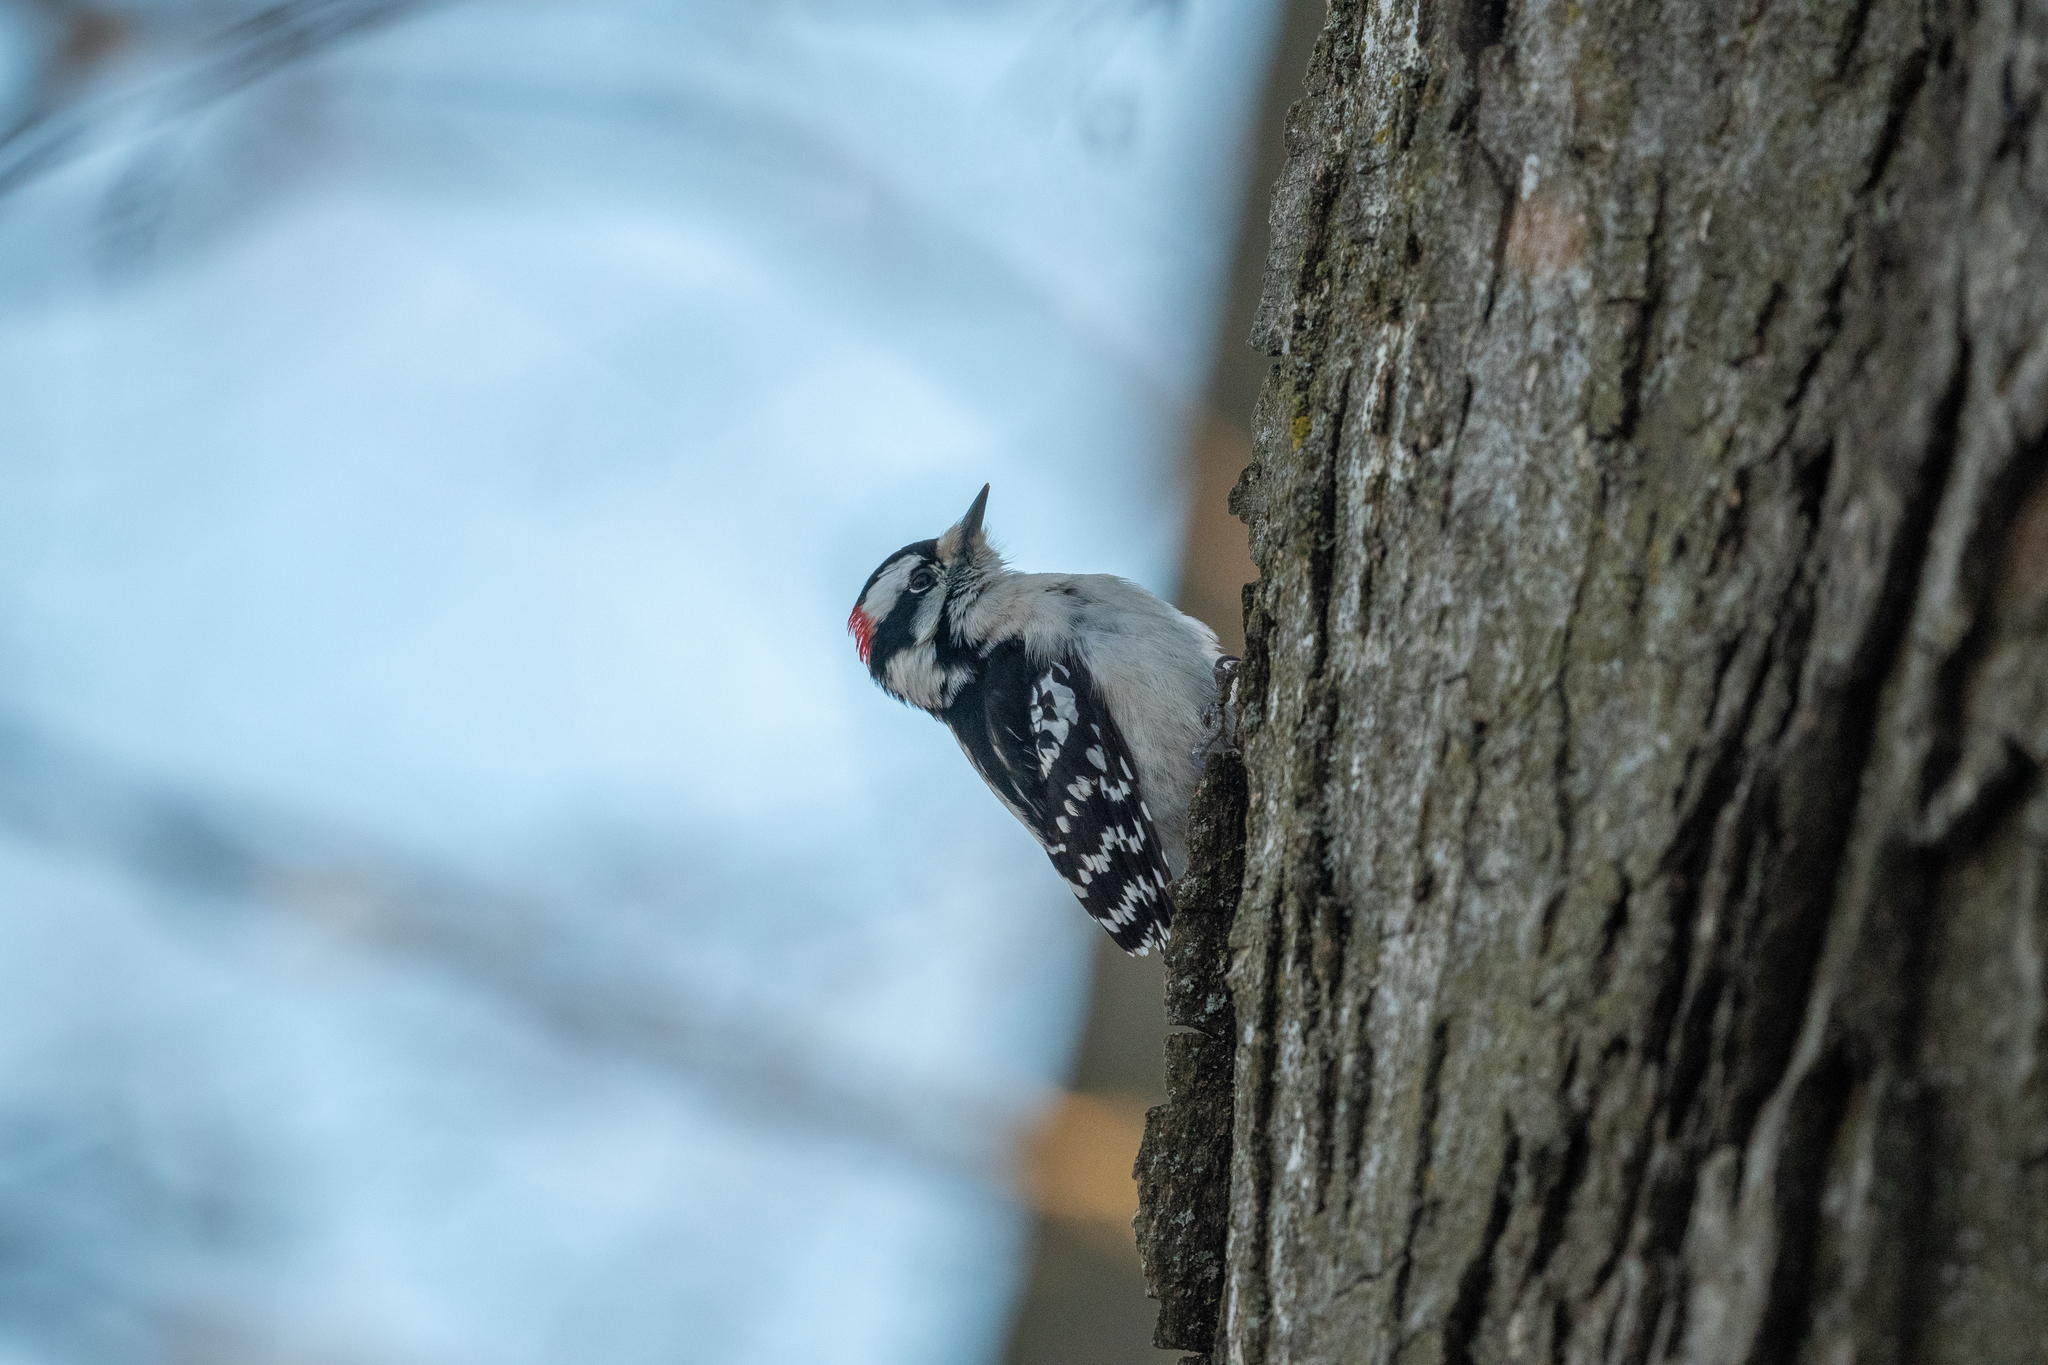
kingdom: Animalia
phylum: Chordata
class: Aves
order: Piciformes
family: Picidae
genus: Dryobates
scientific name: Dryobates pubescens
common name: Downy woodpecker
